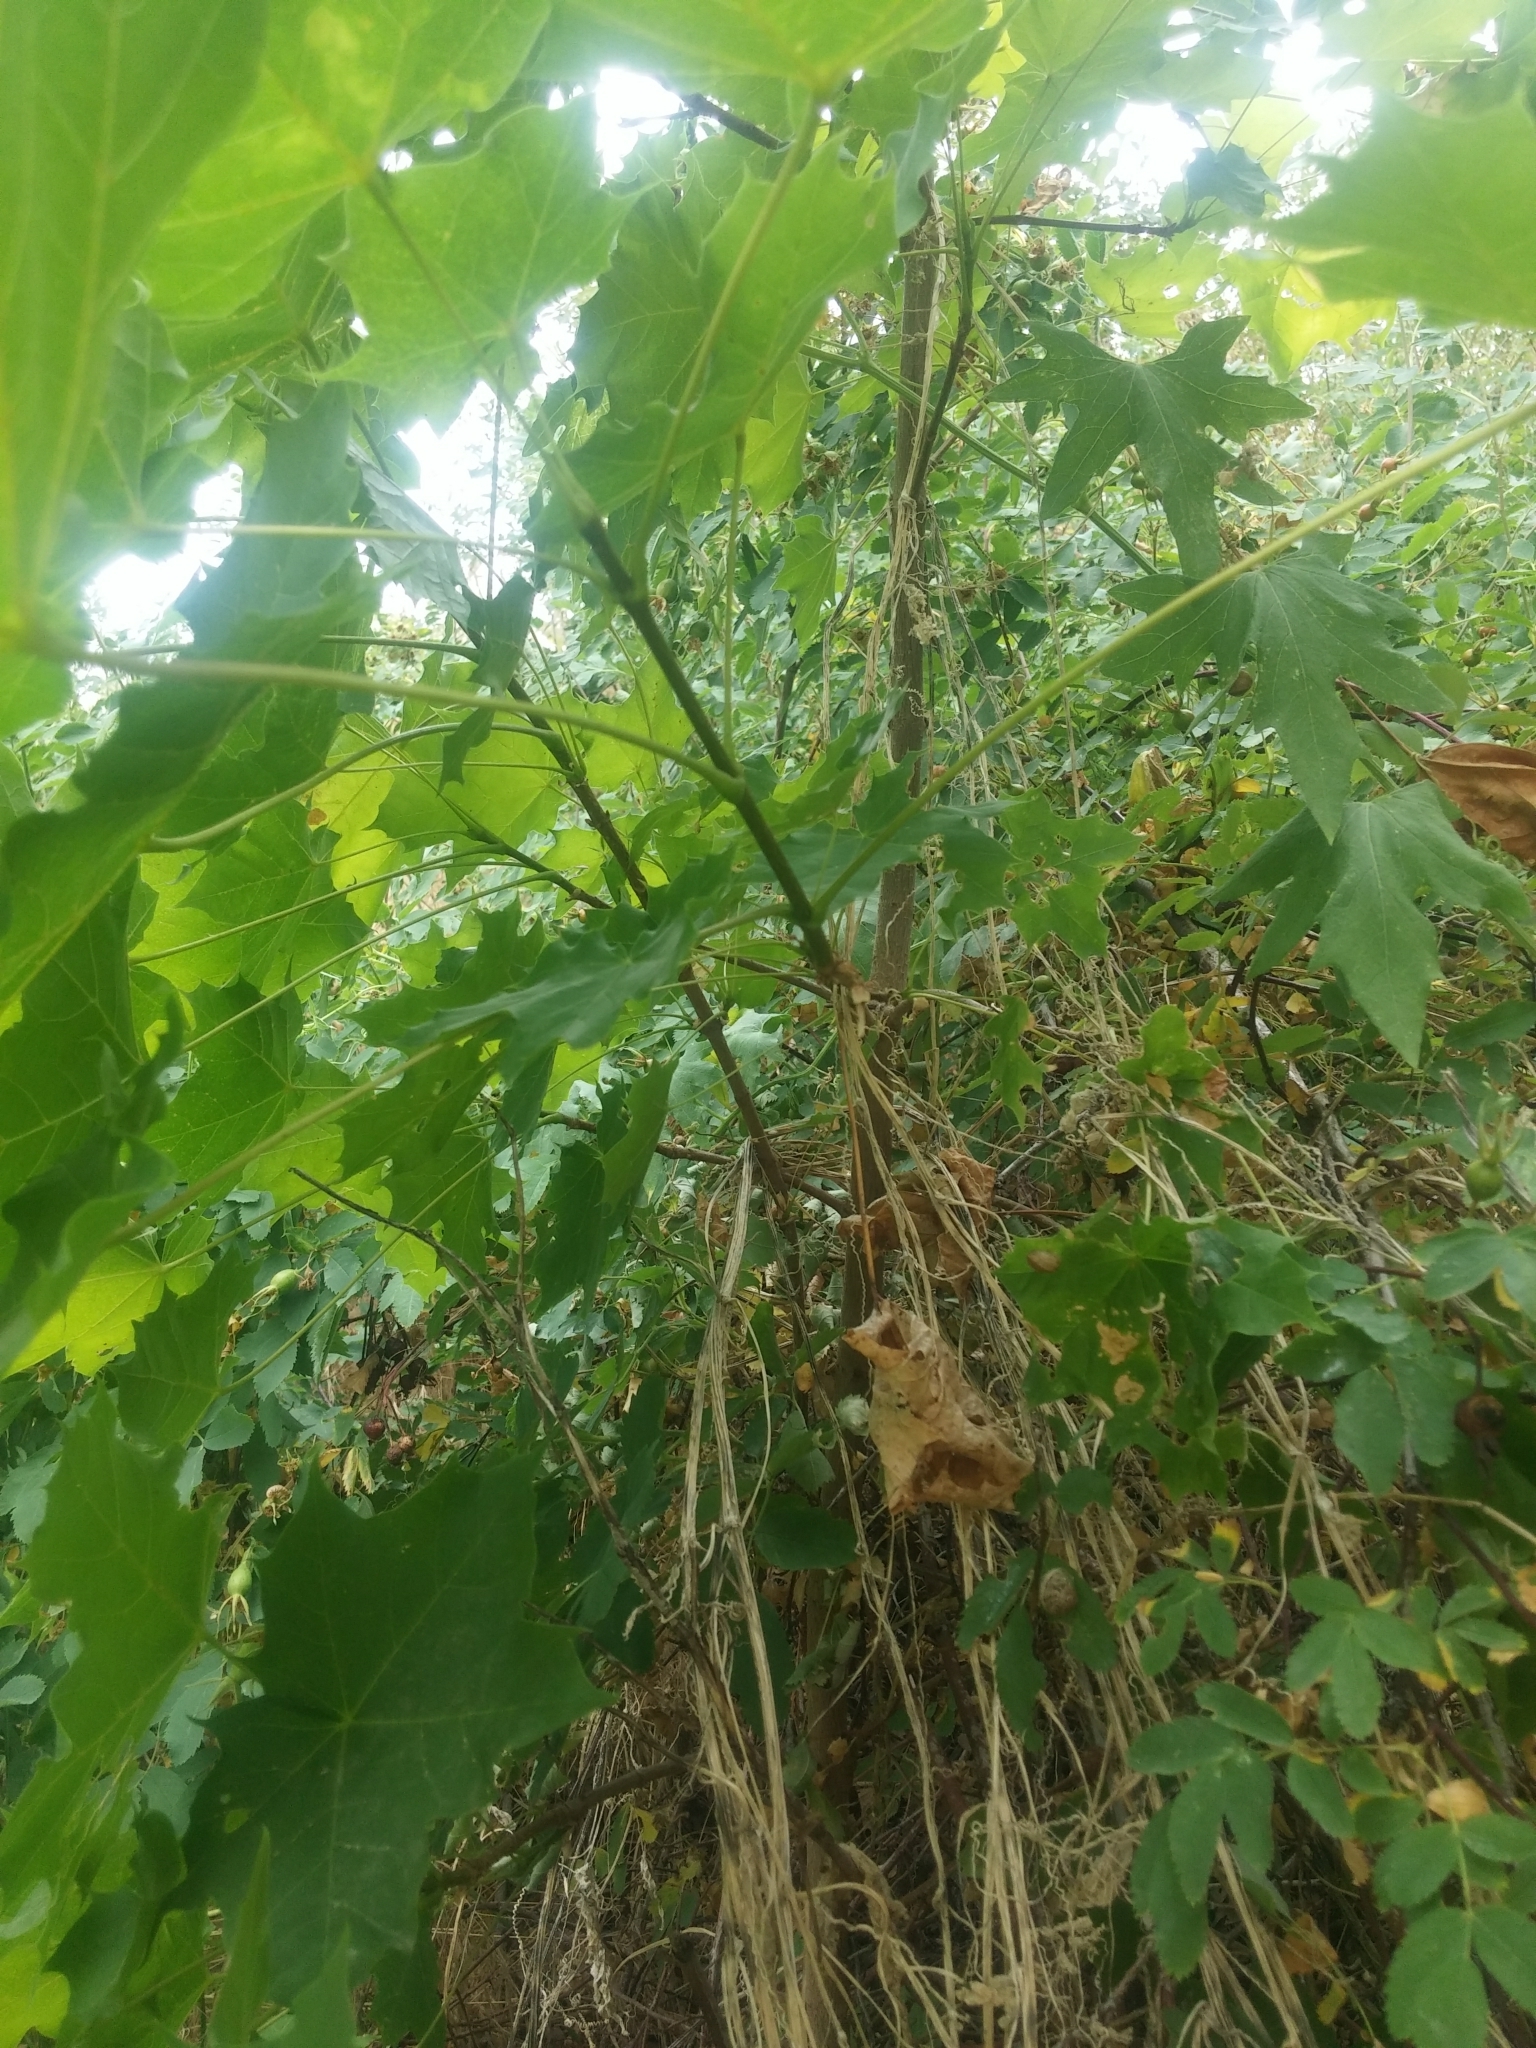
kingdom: Plantae
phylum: Tracheophyta
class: Magnoliopsida
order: Sapindales
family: Sapindaceae
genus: Acer
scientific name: Acer platanoides
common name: Norway maple
